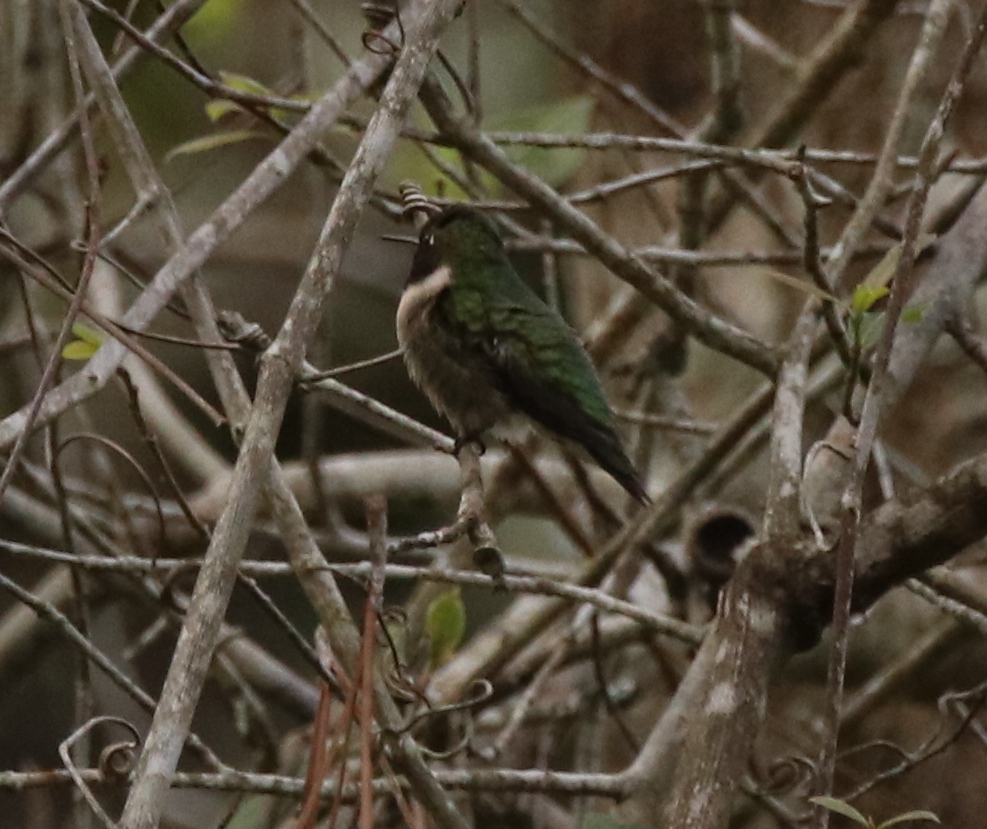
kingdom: Animalia
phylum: Chordata
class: Aves
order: Apodiformes
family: Trochilidae
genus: Archilochus
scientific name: Archilochus colubris
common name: Ruby-throated hummingbird
